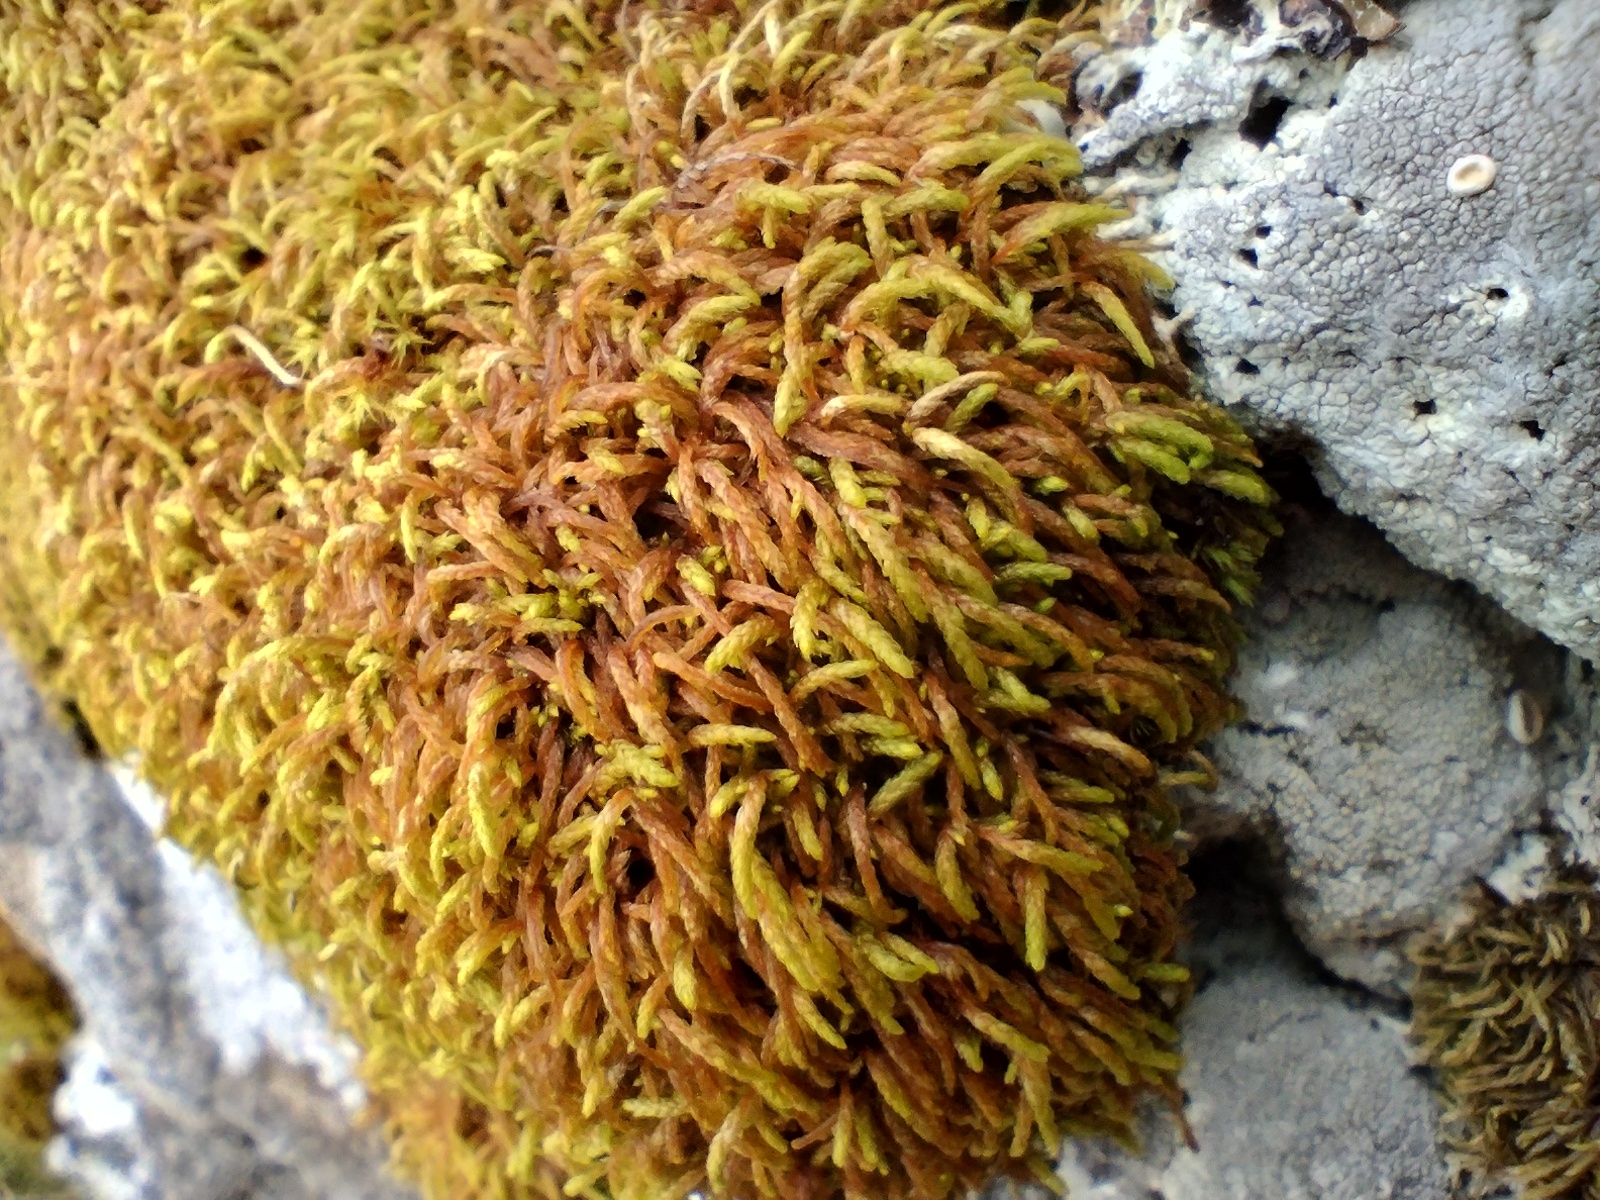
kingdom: Plantae
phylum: Bryophyta
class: Bryopsida
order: Hypnales
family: Pterigynandraceae
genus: Pterigynandrum
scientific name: Pterigynandrum filiforme
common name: Capillary wing moss
